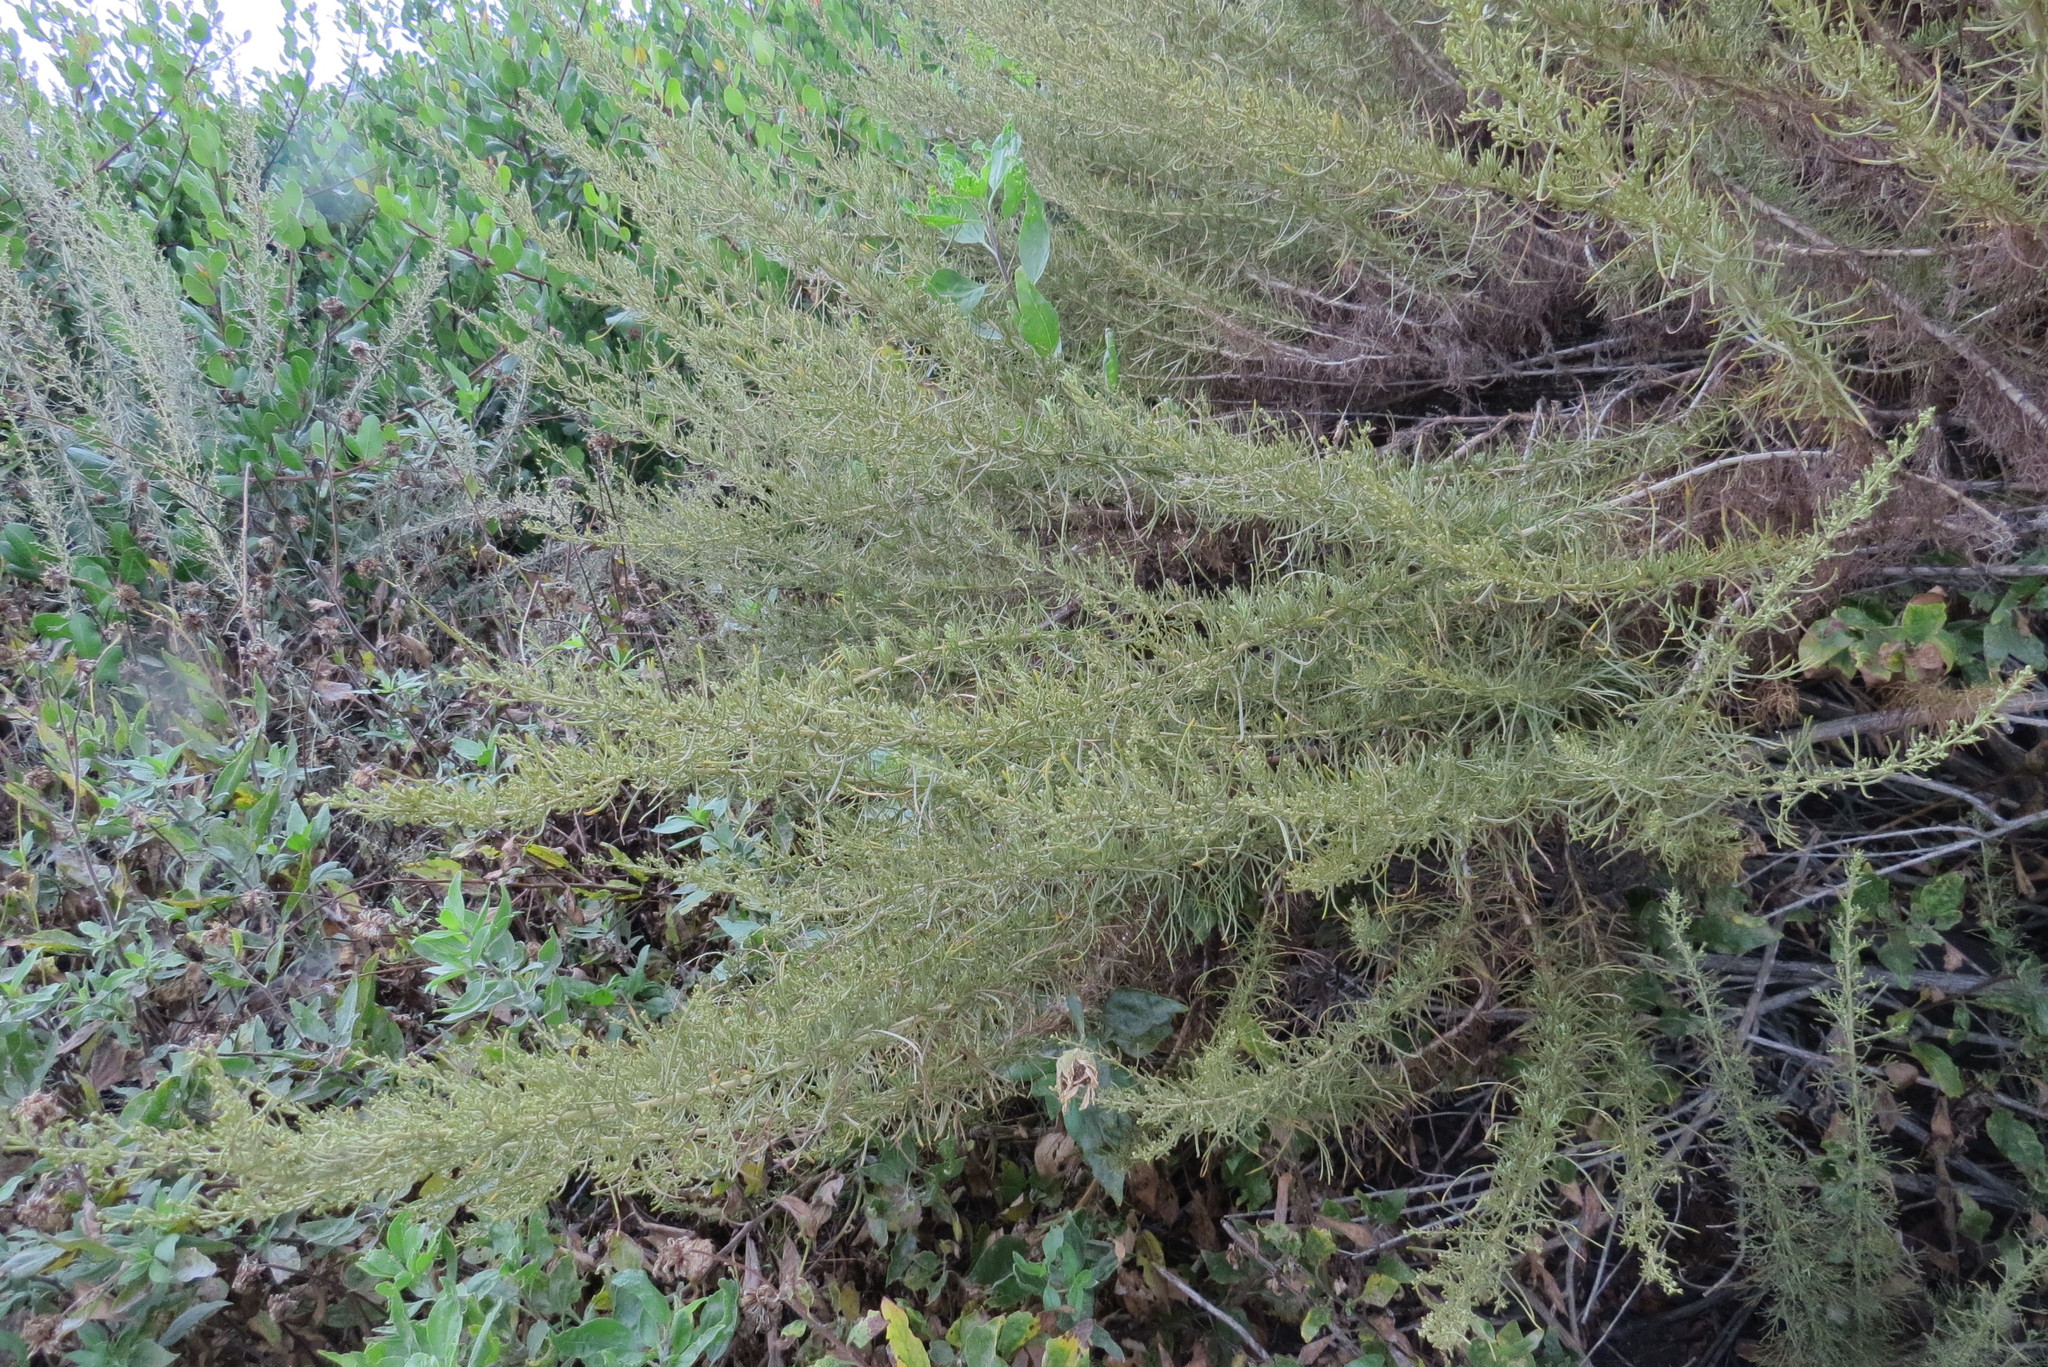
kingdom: Plantae
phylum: Tracheophyta
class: Magnoliopsida
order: Asterales
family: Asteraceae
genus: Artemisia
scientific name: Artemisia californica
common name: California sagebrush
